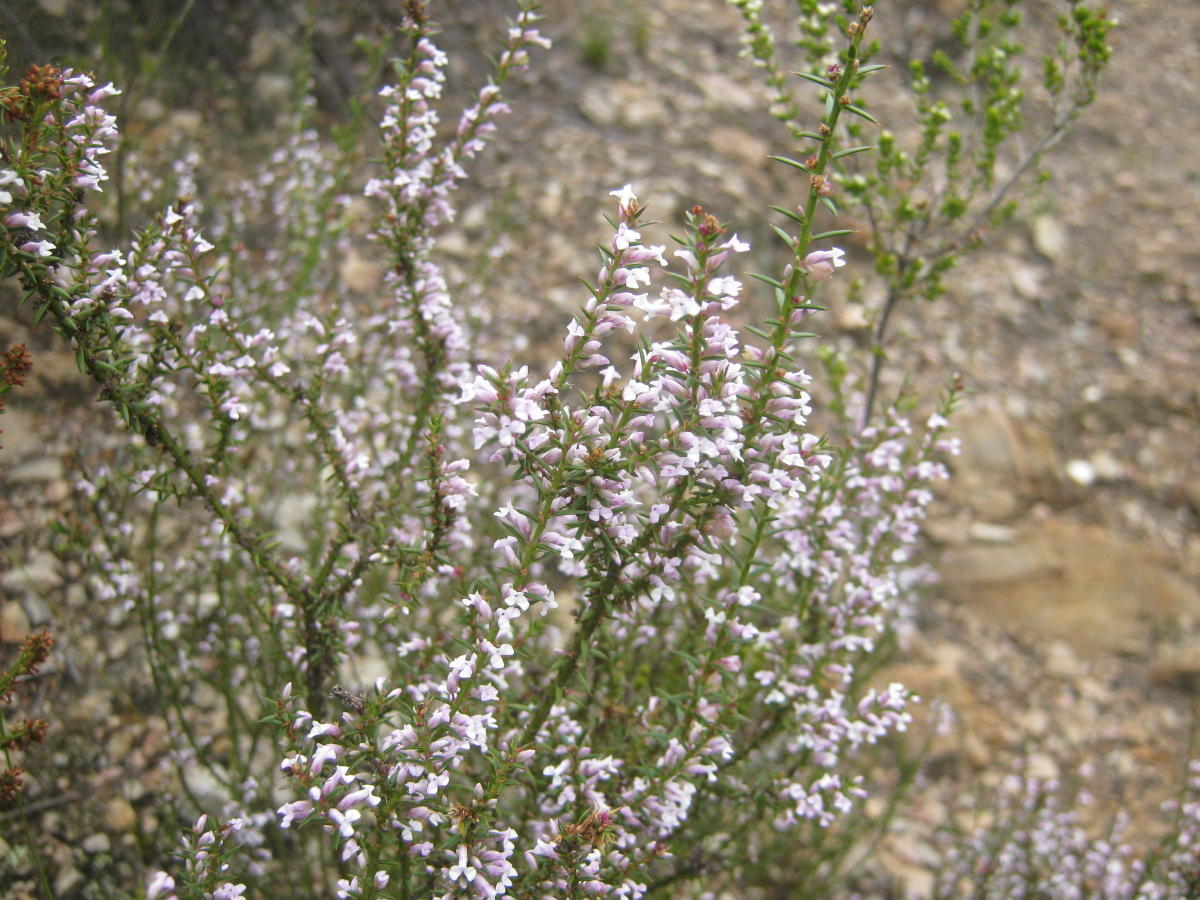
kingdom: Plantae
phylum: Tracheophyta
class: Magnoliopsida
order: Fabales
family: Polygalaceae
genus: Muraltia
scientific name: Muraltia juniperifolia
